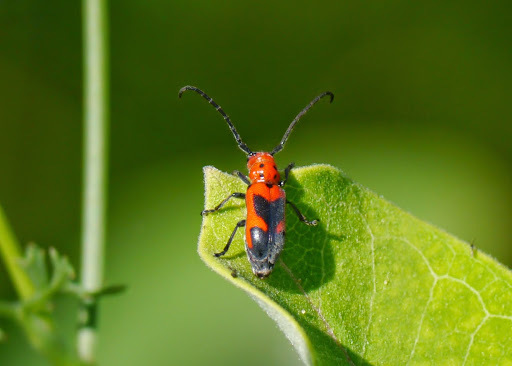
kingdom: Animalia
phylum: Arthropoda
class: Insecta
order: Coleoptera
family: Cerambycidae
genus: Tetraopes
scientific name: Tetraopes melanurus
